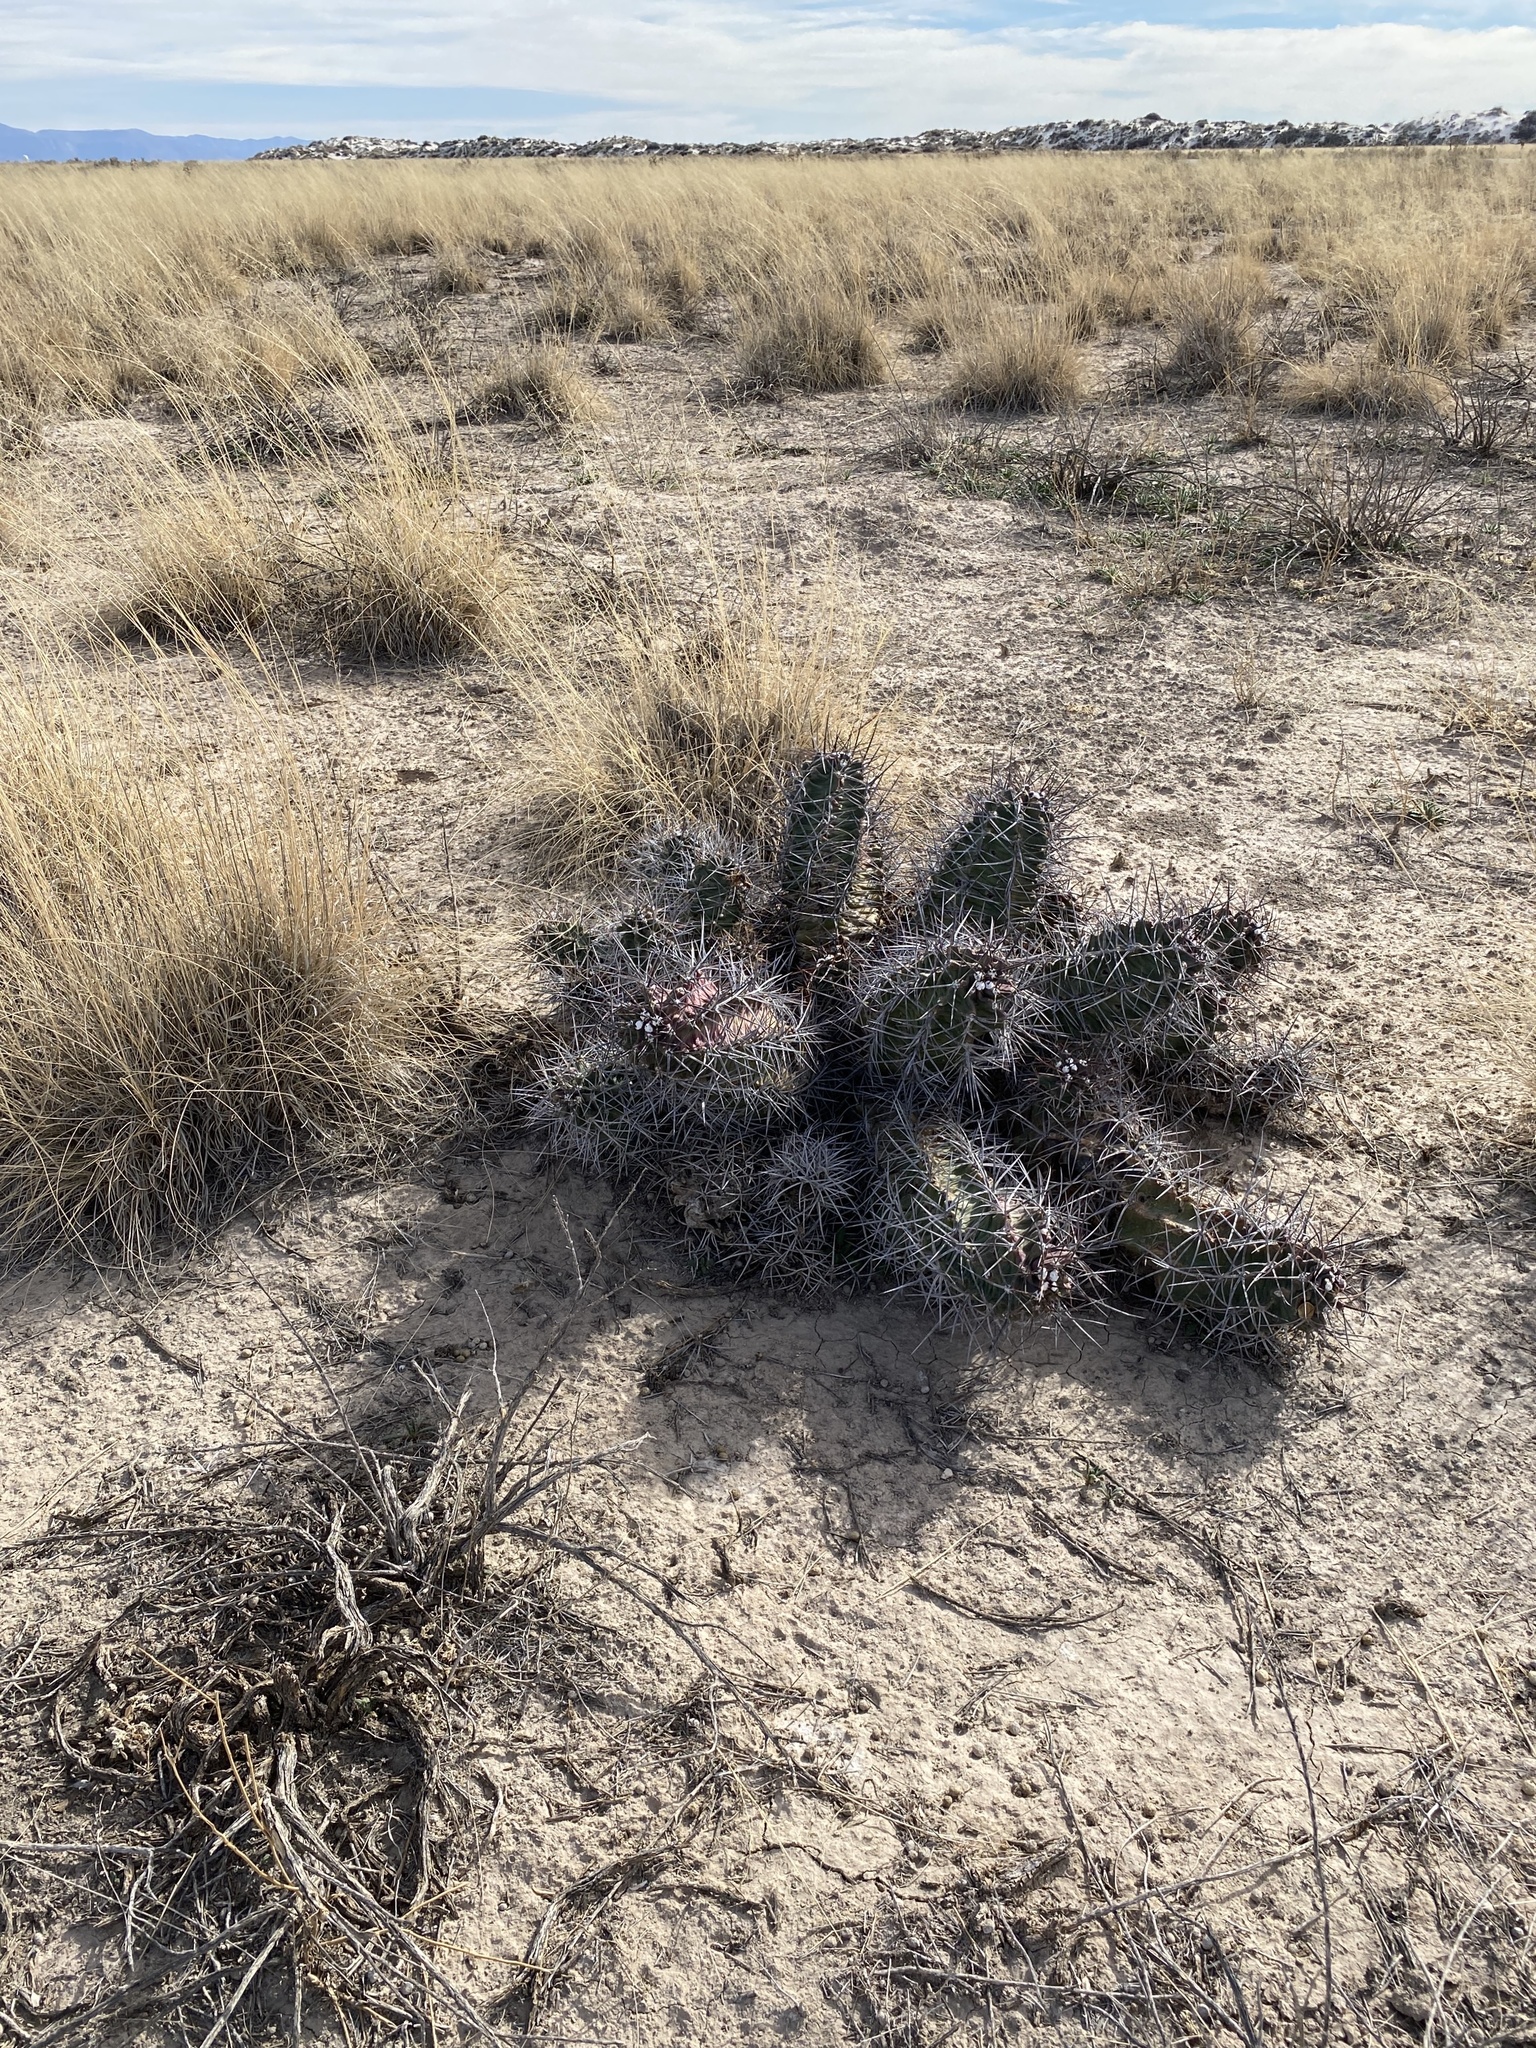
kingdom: Plantae
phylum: Tracheophyta
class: Magnoliopsida
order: Caryophyllales
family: Cactaceae
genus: Echinocereus
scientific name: Echinocereus triglochidiatus
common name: Claretcup hedgehog
